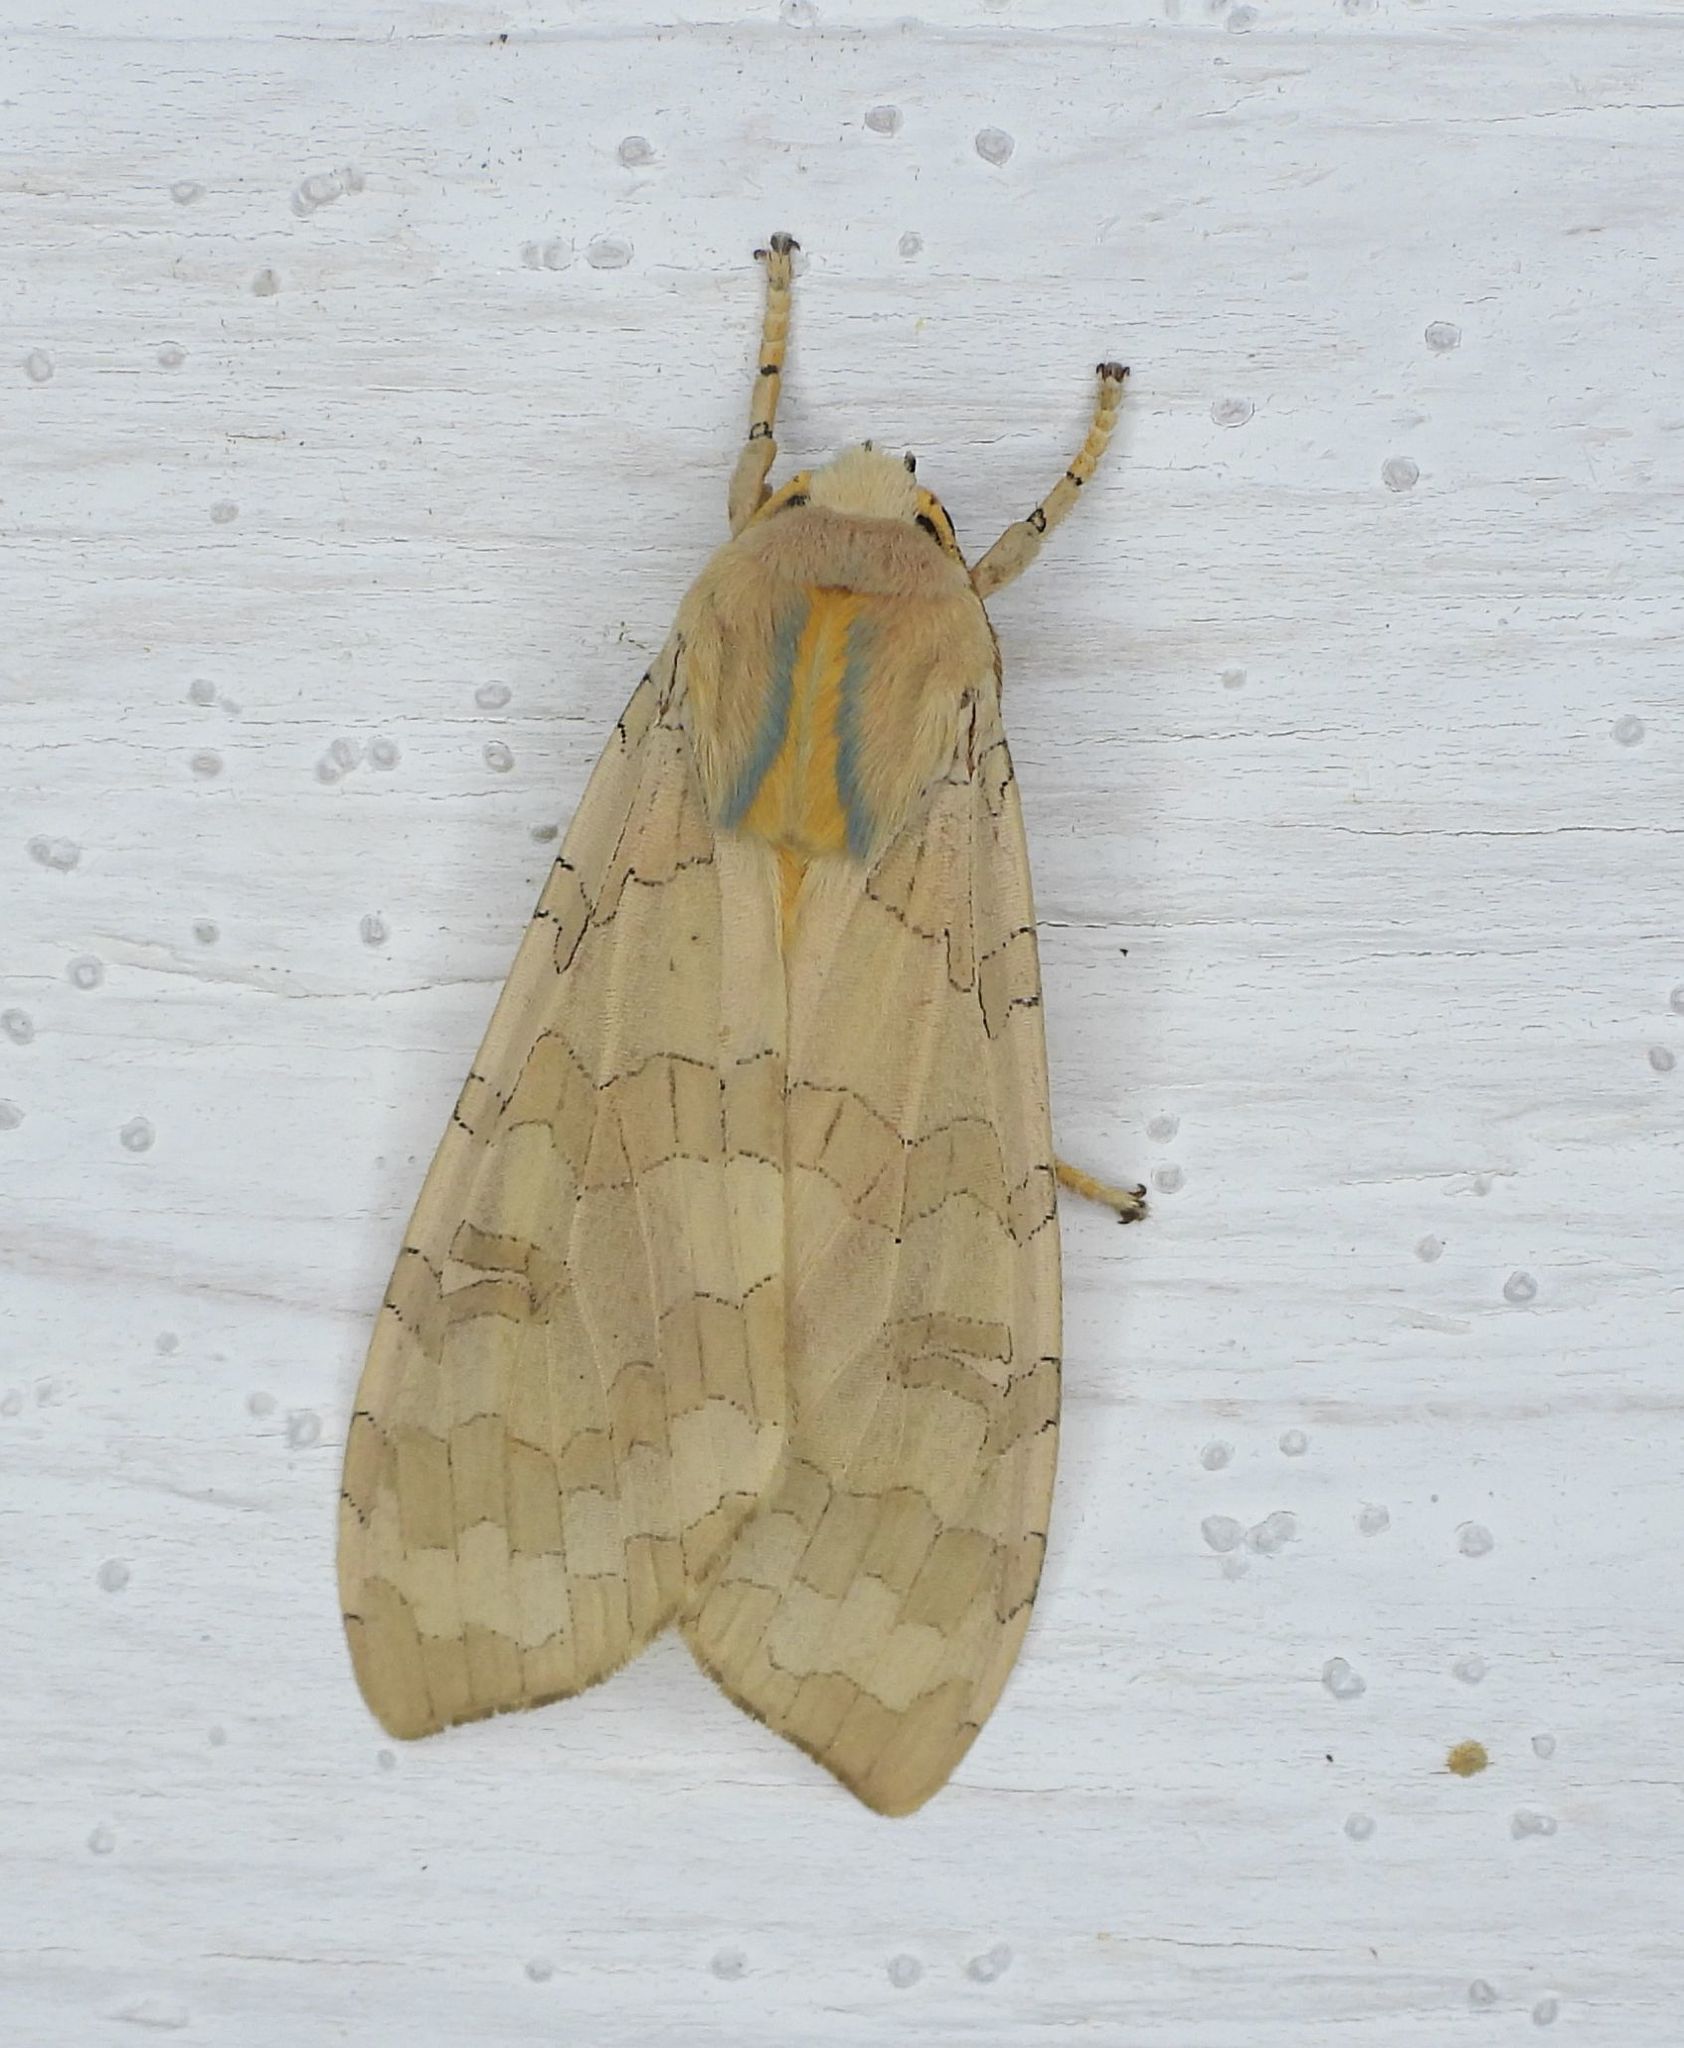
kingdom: Animalia
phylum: Arthropoda
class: Insecta
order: Lepidoptera
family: Erebidae
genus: Halysidota
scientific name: Halysidota tessellaris
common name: Banded tussock moth
